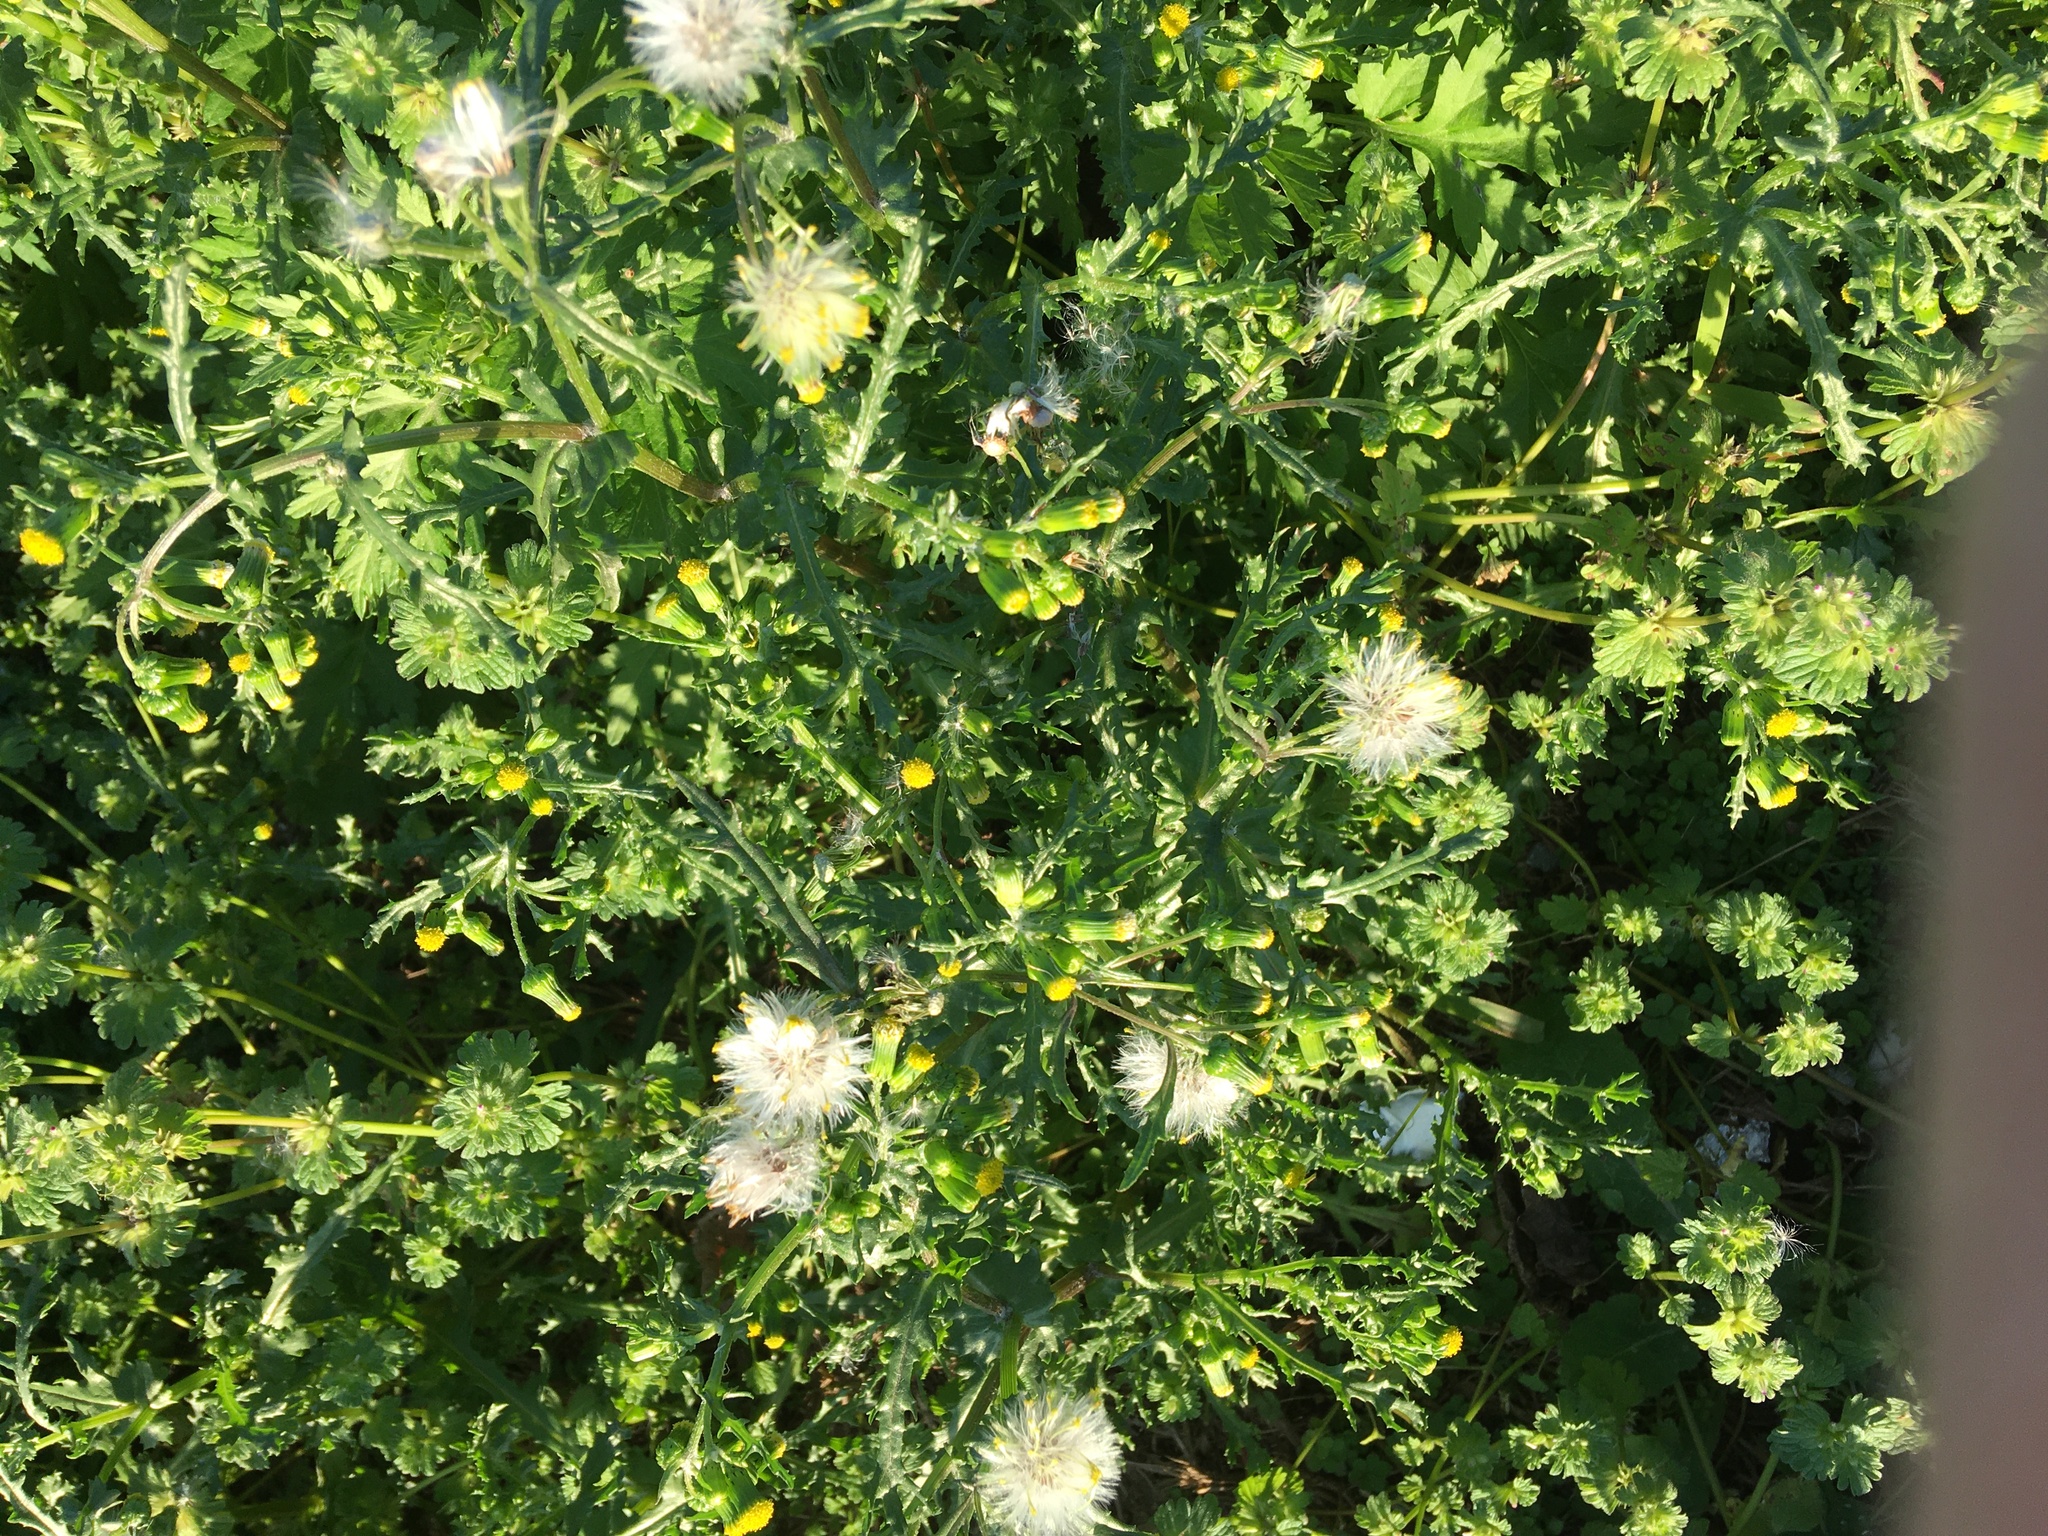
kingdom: Plantae
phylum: Tracheophyta
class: Magnoliopsida
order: Asterales
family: Asteraceae
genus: Senecio
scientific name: Senecio vulgaris
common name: Old-man-in-the-spring
